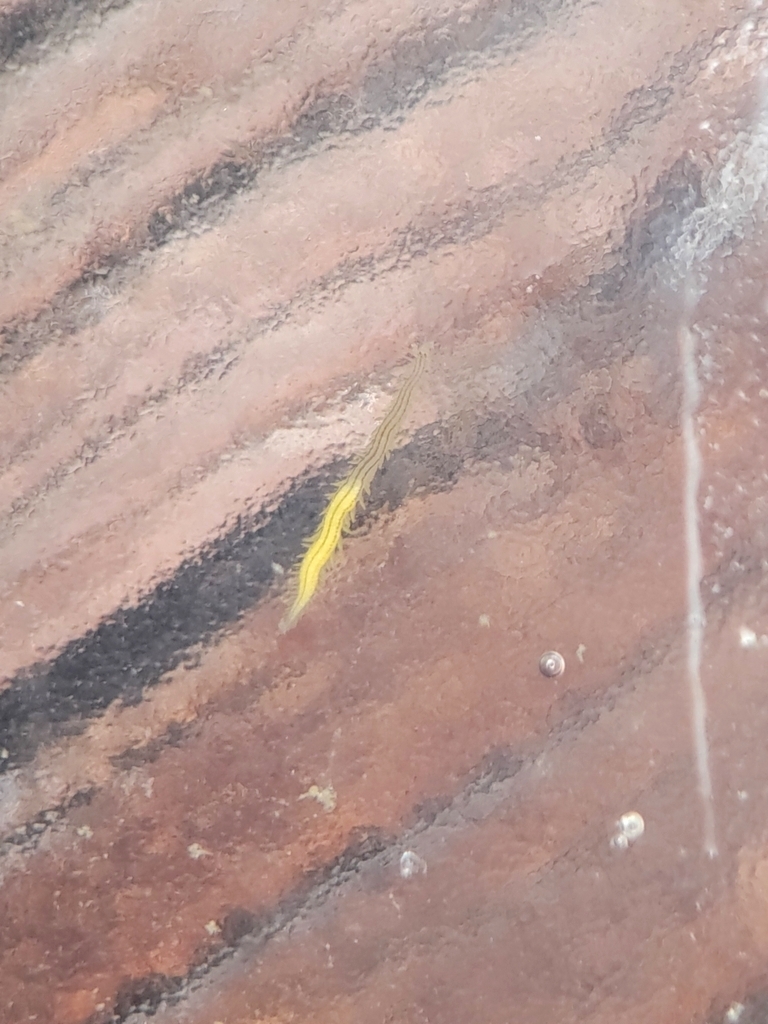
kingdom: Animalia
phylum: Annelida
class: Polychaeta
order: Phyllodocida
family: Phyllodocidae
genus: Eulalia
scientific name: Eulalia gracilior
